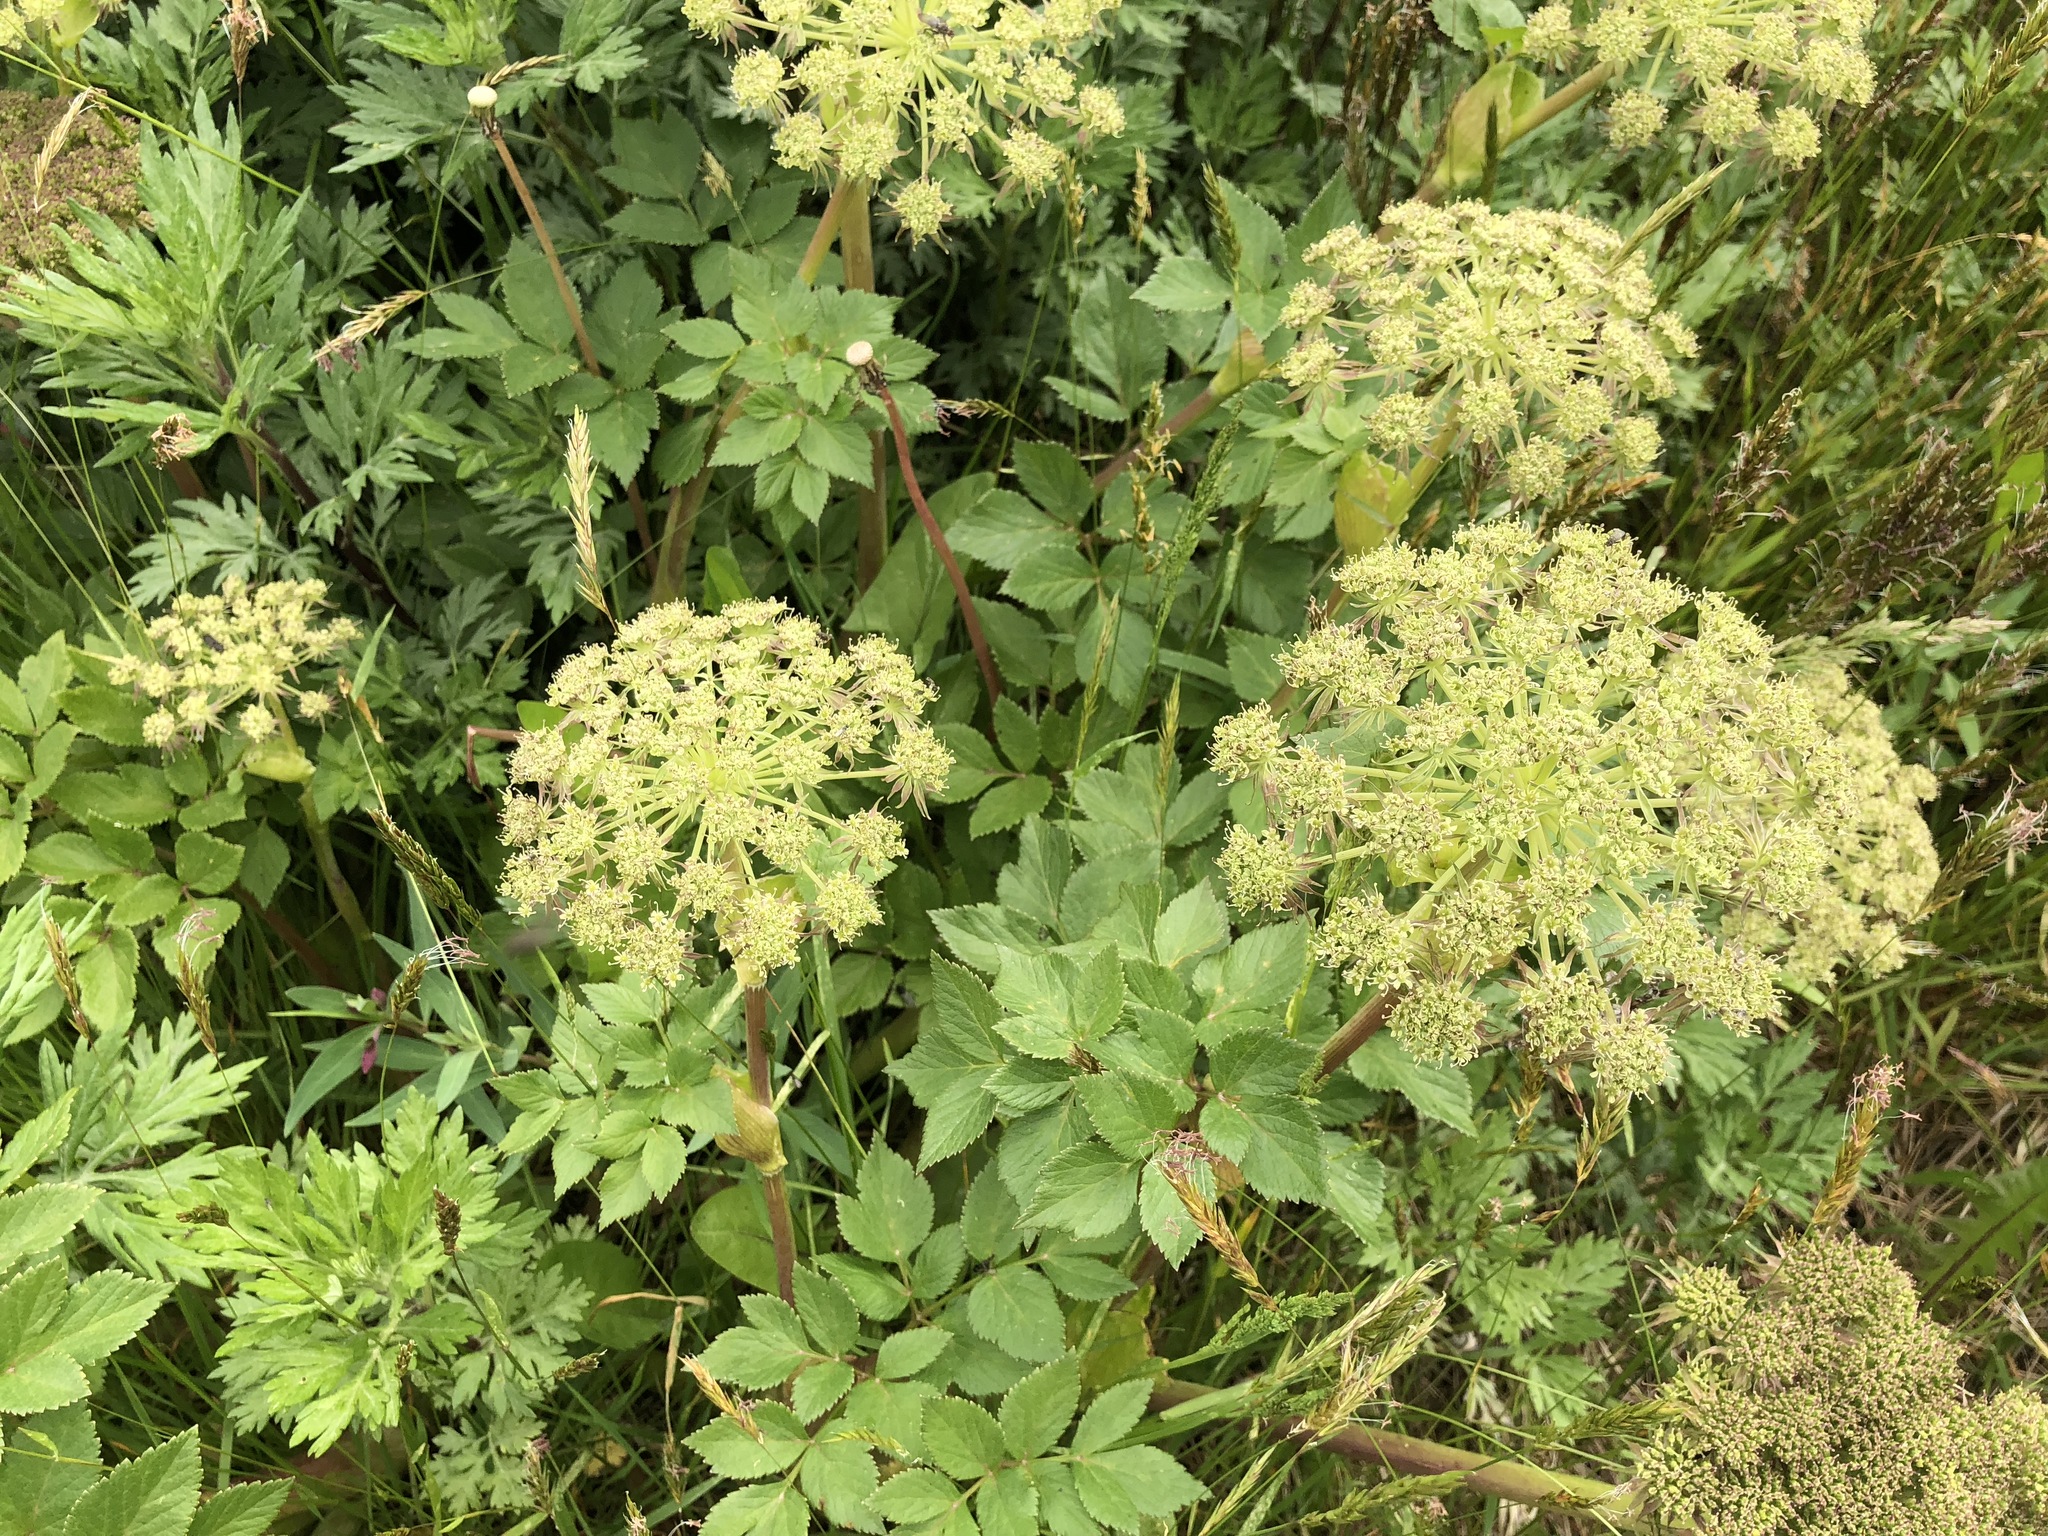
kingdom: Plantae
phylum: Tracheophyta
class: Magnoliopsida
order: Apiales
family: Apiaceae
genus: Angelica
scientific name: Angelica lucida
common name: Seabeach angelica
